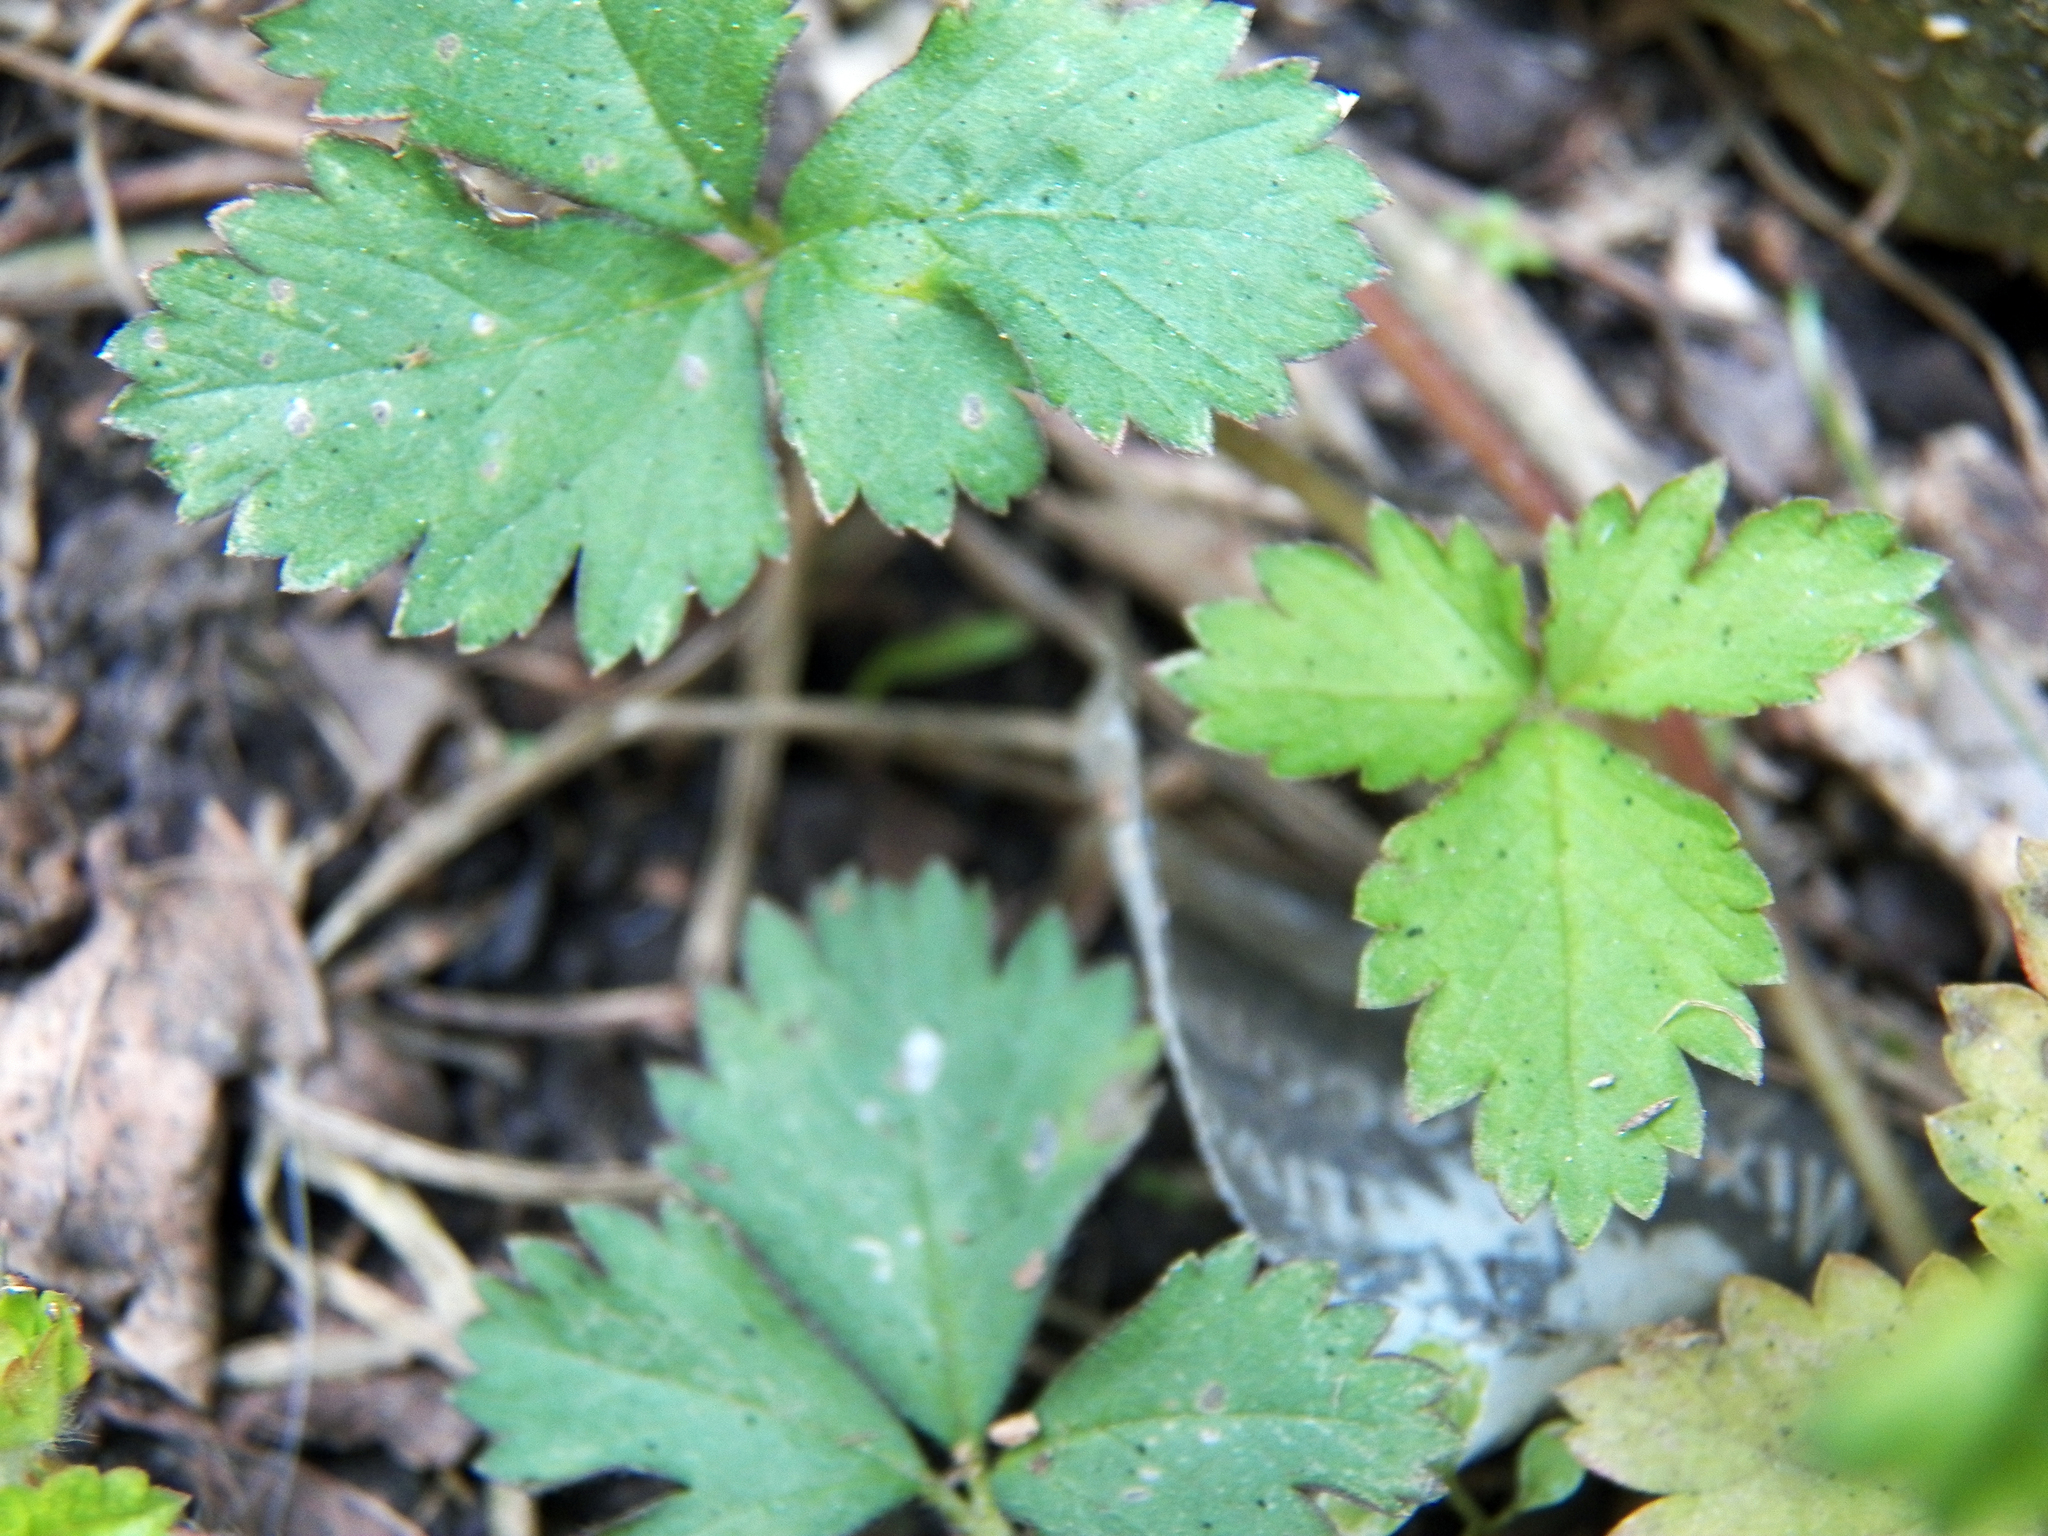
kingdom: Plantae
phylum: Tracheophyta
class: Magnoliopsida
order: Rosales
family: Rosaceae
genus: Potentilla
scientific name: Potentilla indica
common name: Yellow-flowered strawberry
